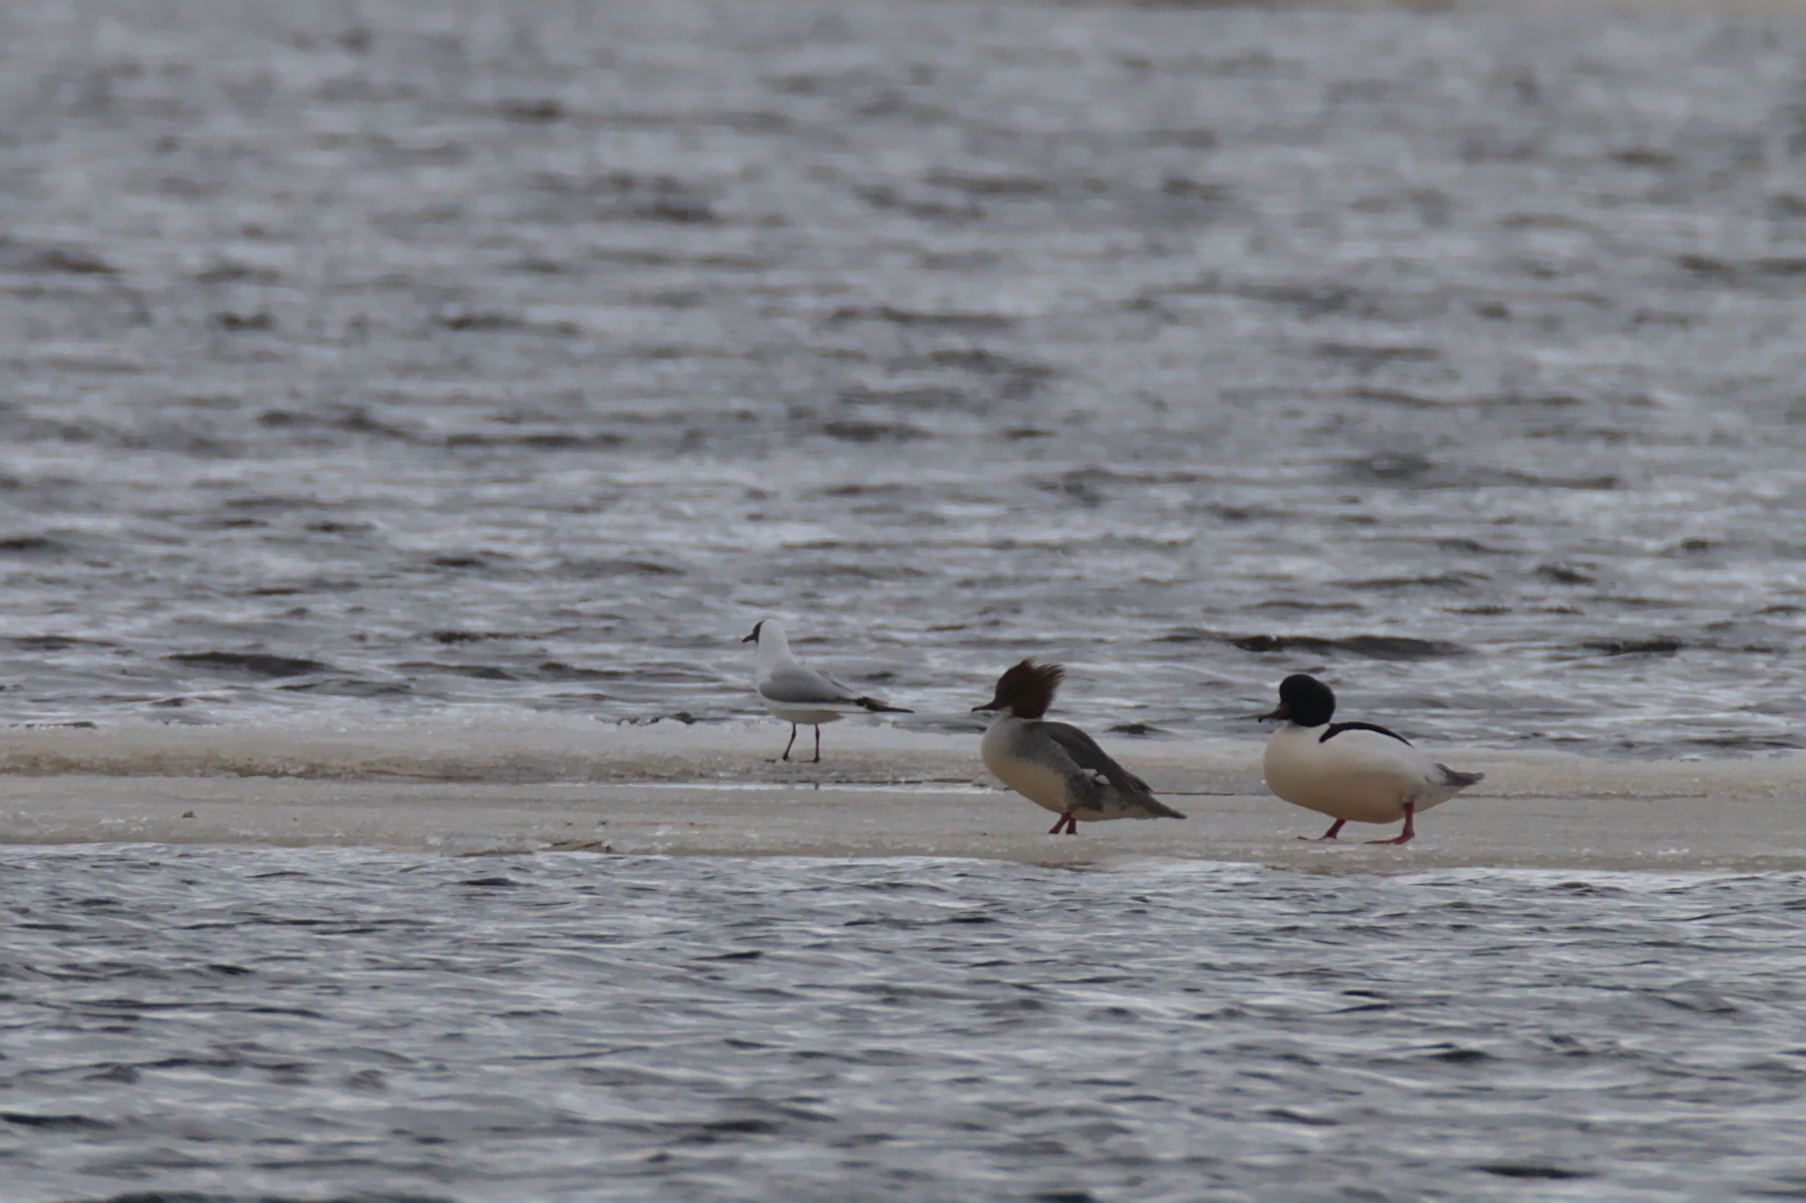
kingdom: Animalia
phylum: Chordata
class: Aves
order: Anseriformes
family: Anatidae
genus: Mergus
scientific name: Mergus merganser
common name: Common merganser
